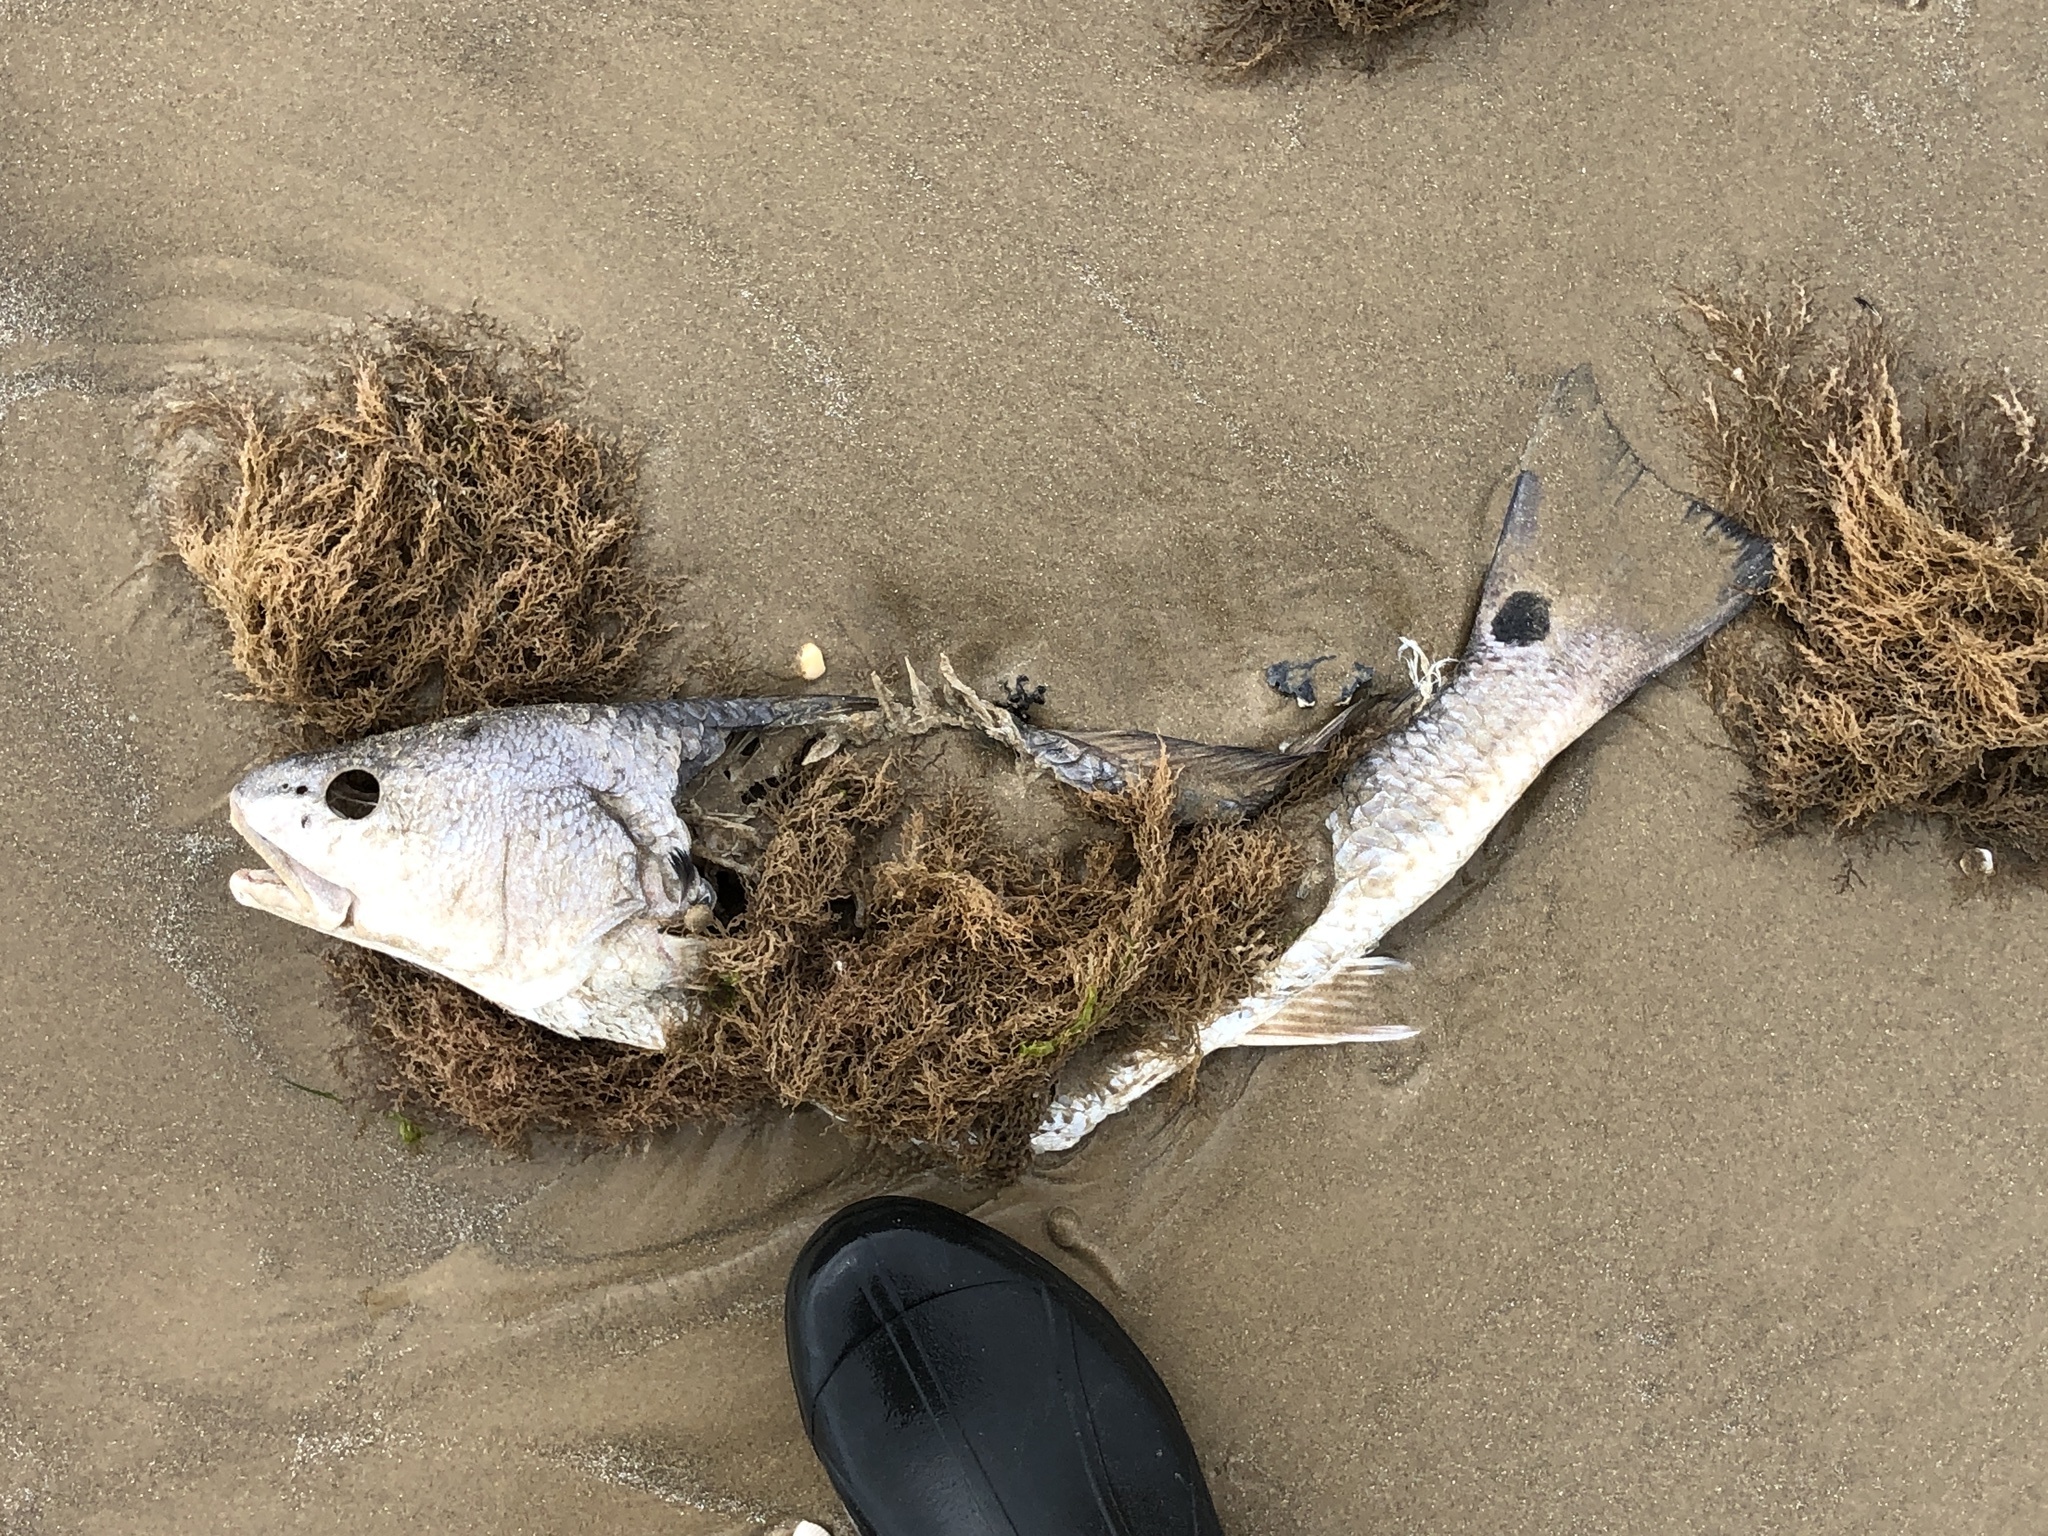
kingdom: Animalia
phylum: Chordata
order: Perciformes
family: Sciaenidae
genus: Sciaenops
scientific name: Sciaenops ocellatus
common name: Red drum
